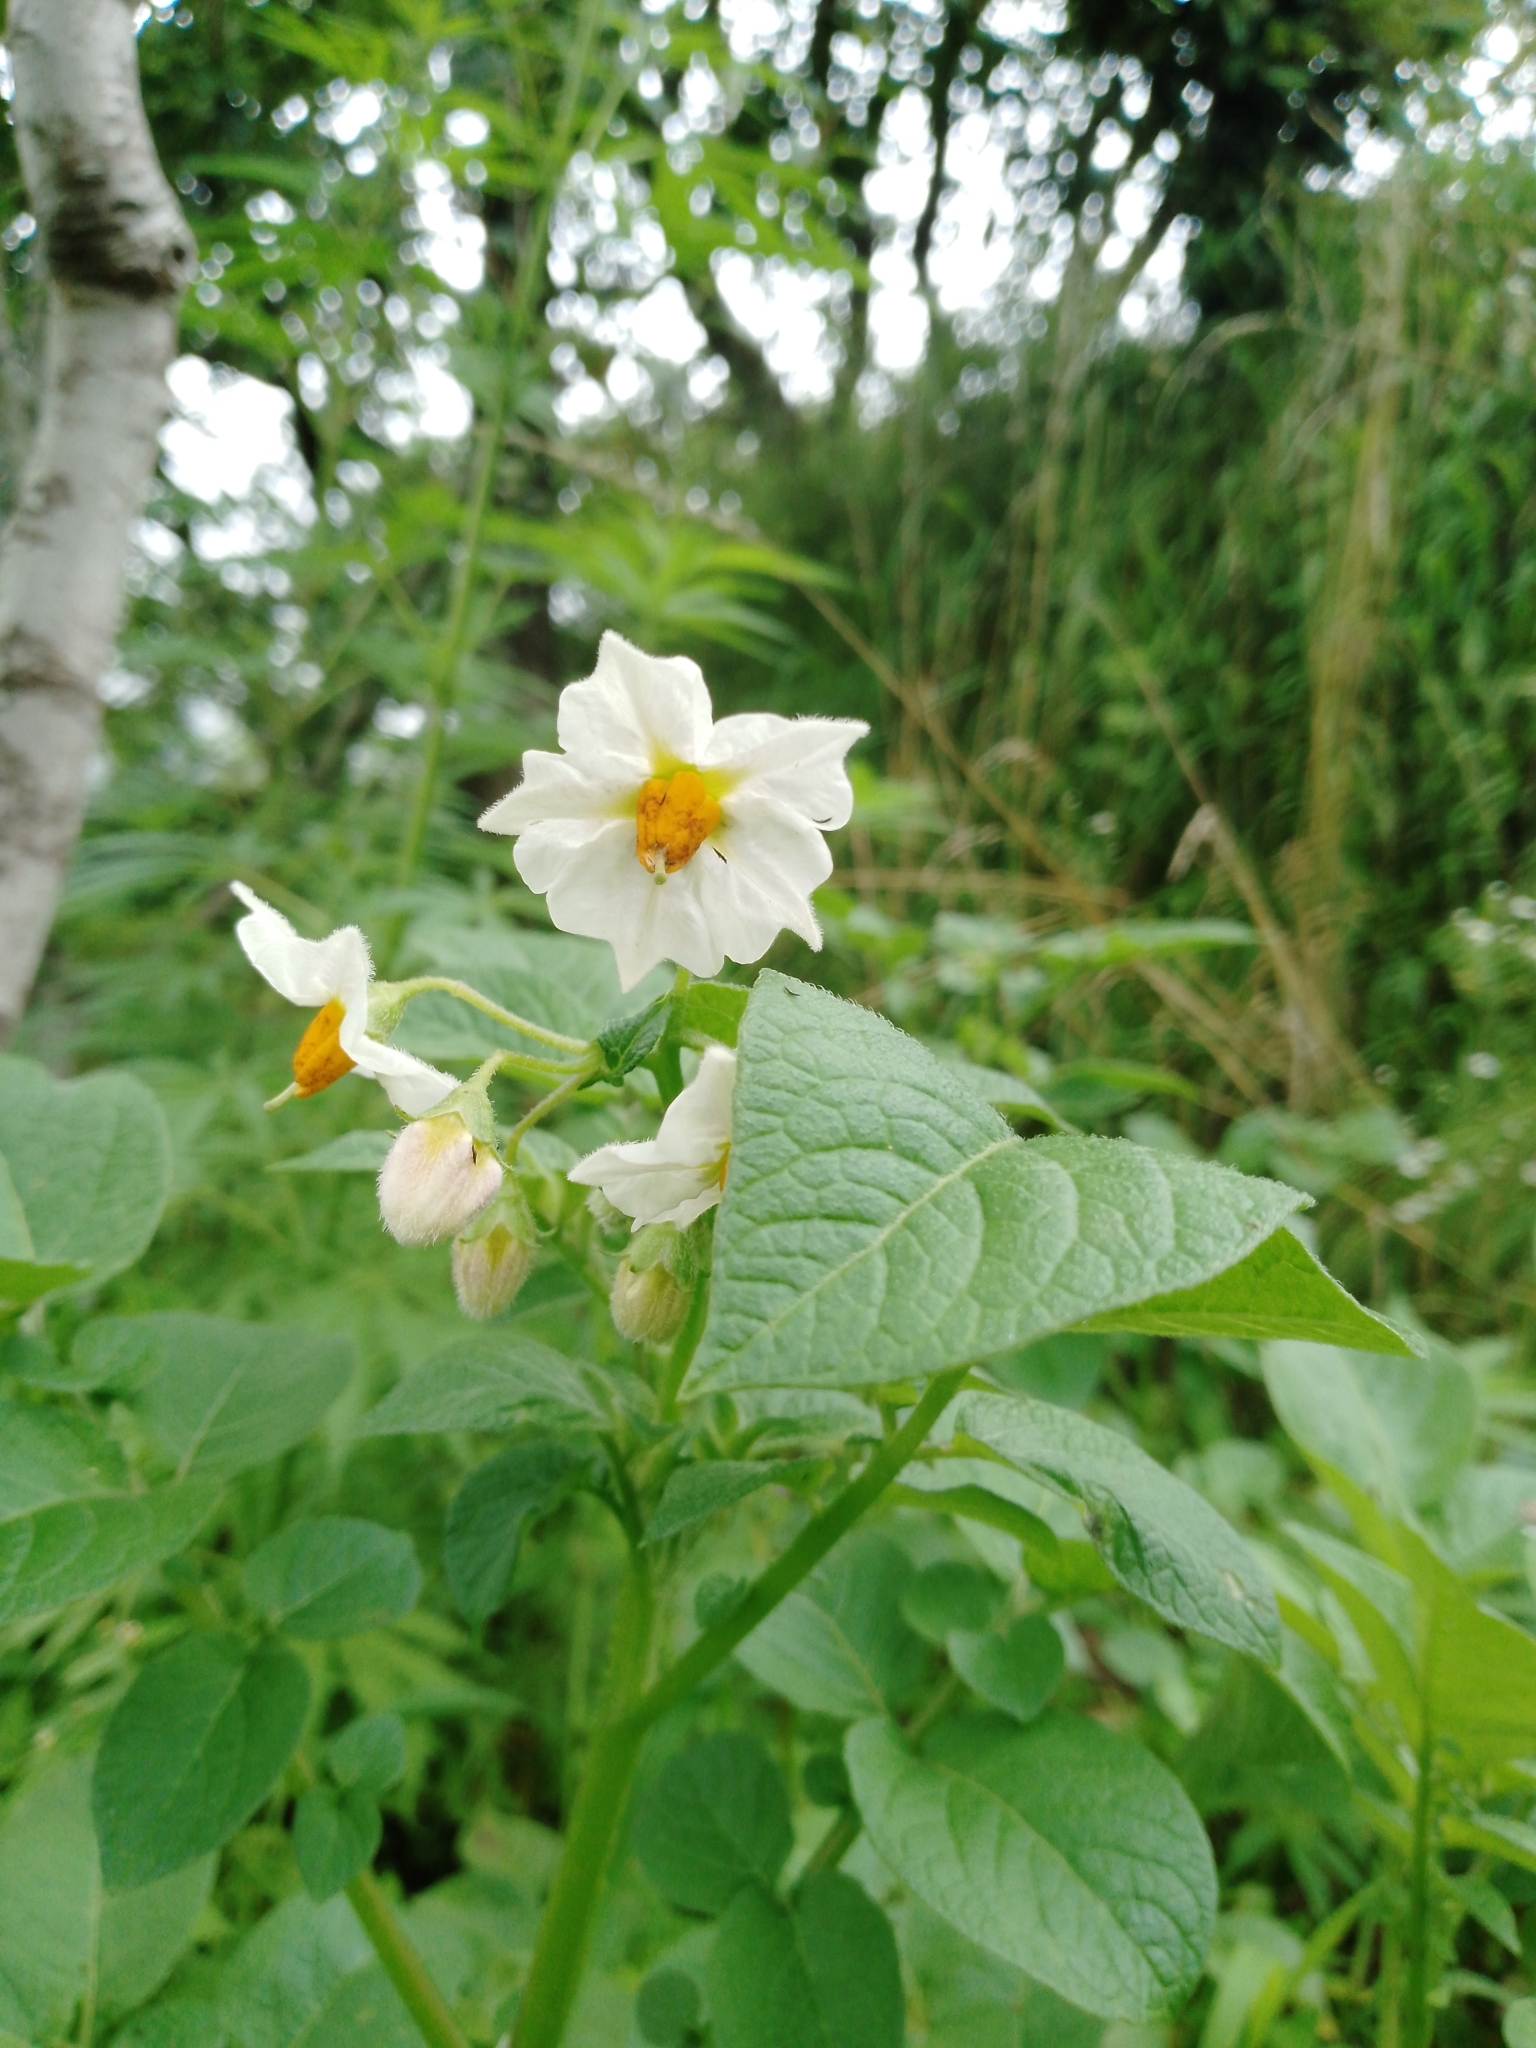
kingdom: Plantae
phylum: Tracheophyta
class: Magnoliopsida
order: Solanales
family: Solanaceae
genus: Solanum
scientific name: Solanum tuberosum
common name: Potato
